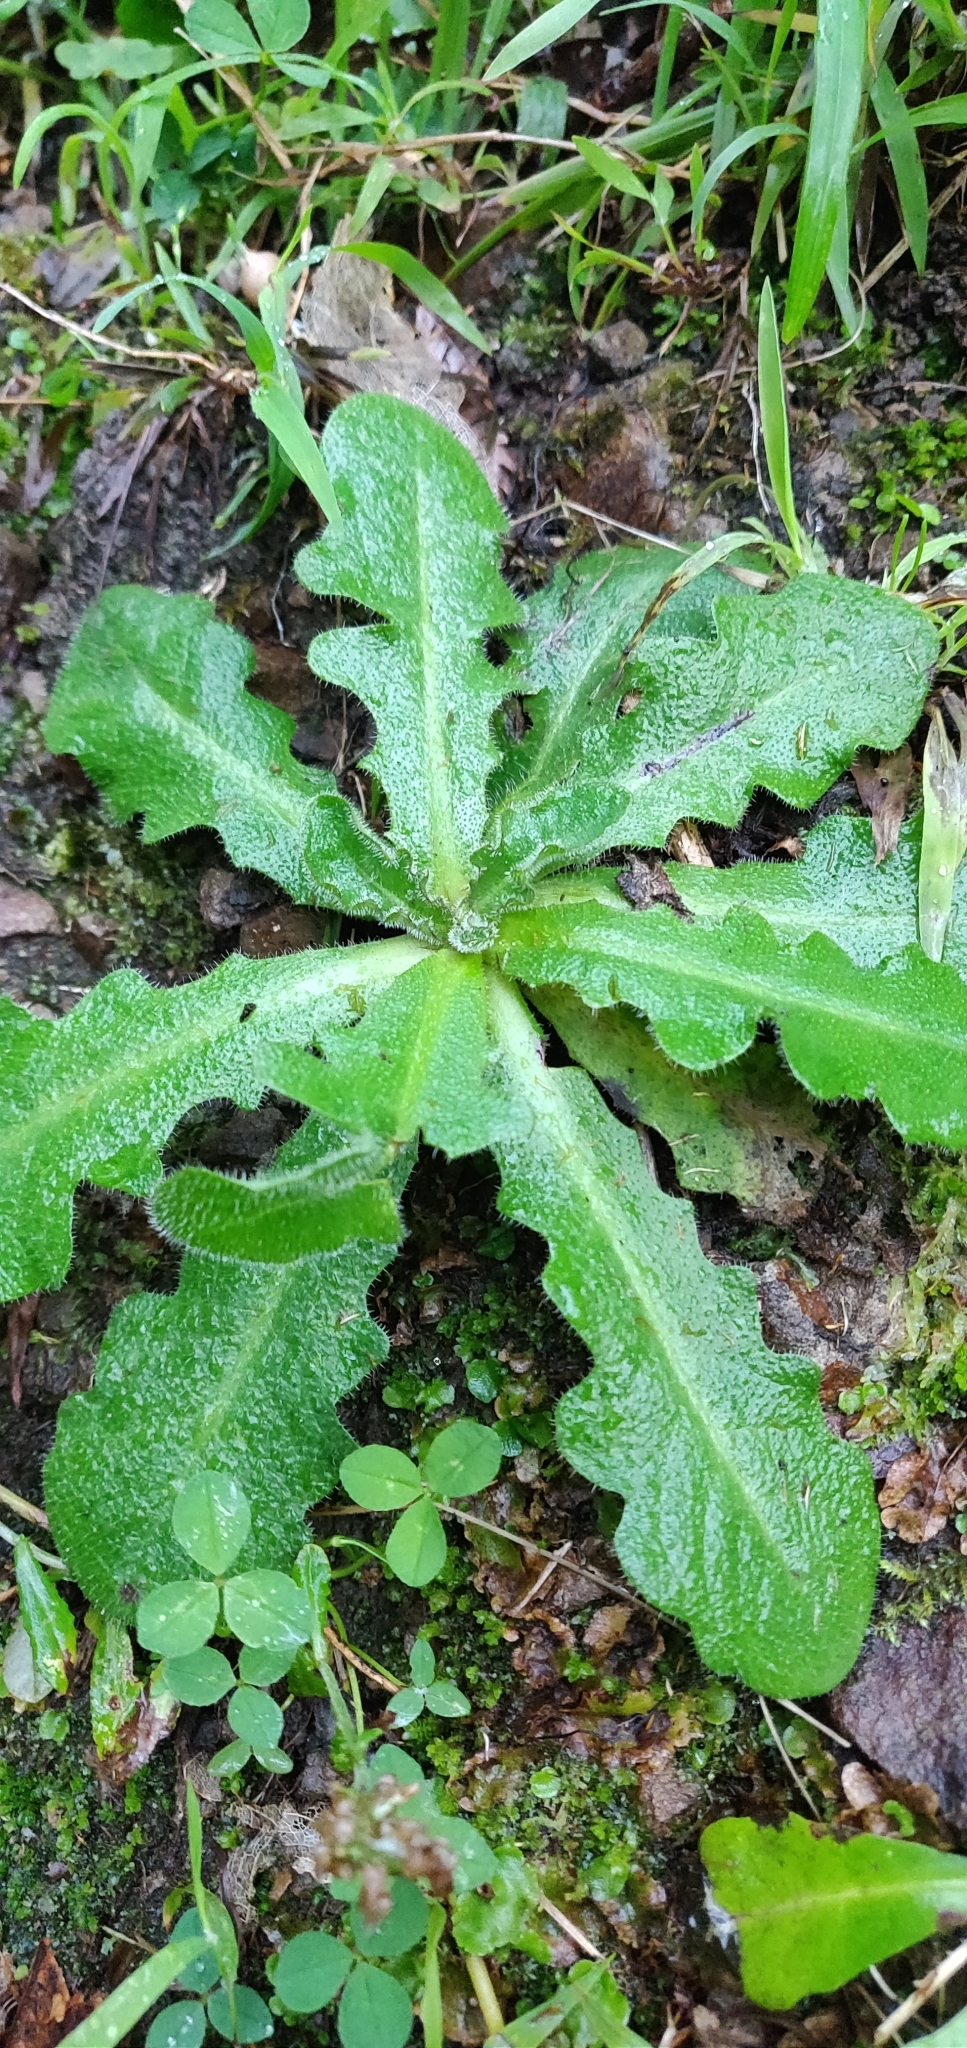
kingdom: Plantae
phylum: Tracheophyta
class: Magnoliopsida
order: Asterales
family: Asteraceae
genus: Hypochaeris
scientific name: Hypochaeris radicata
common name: Flatweed
